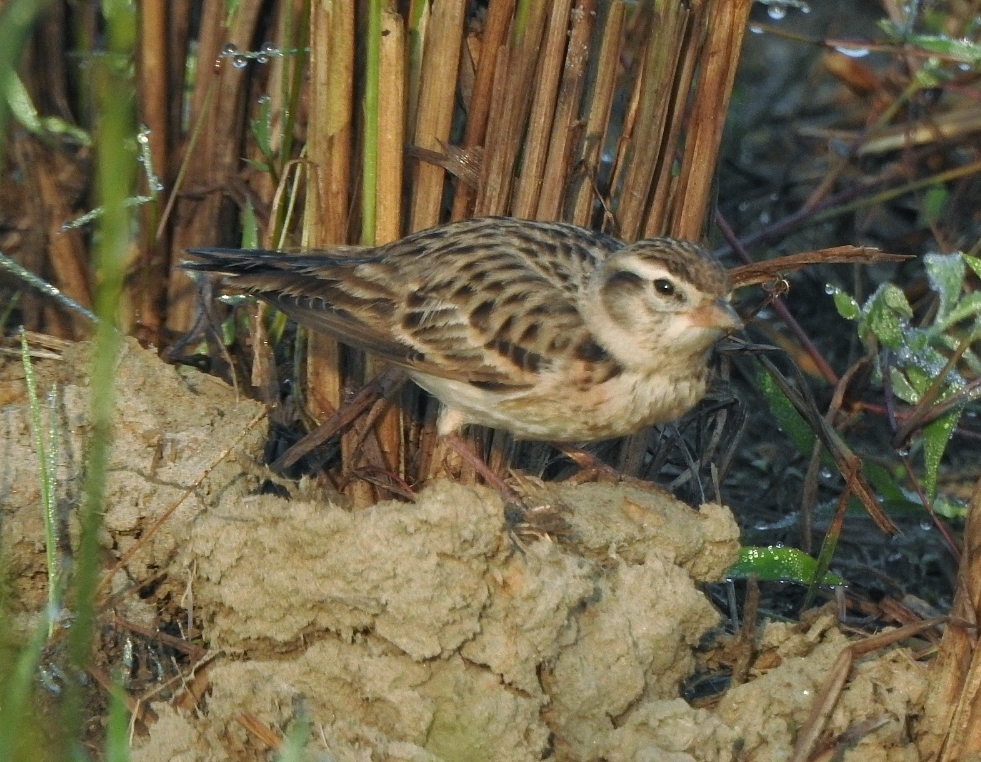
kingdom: Animalia
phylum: Chordata
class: Aves
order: Passeriformes
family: Alaudidae
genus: Calandrella
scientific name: Calandrella brachydactyla
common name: Greater short-toed lark
